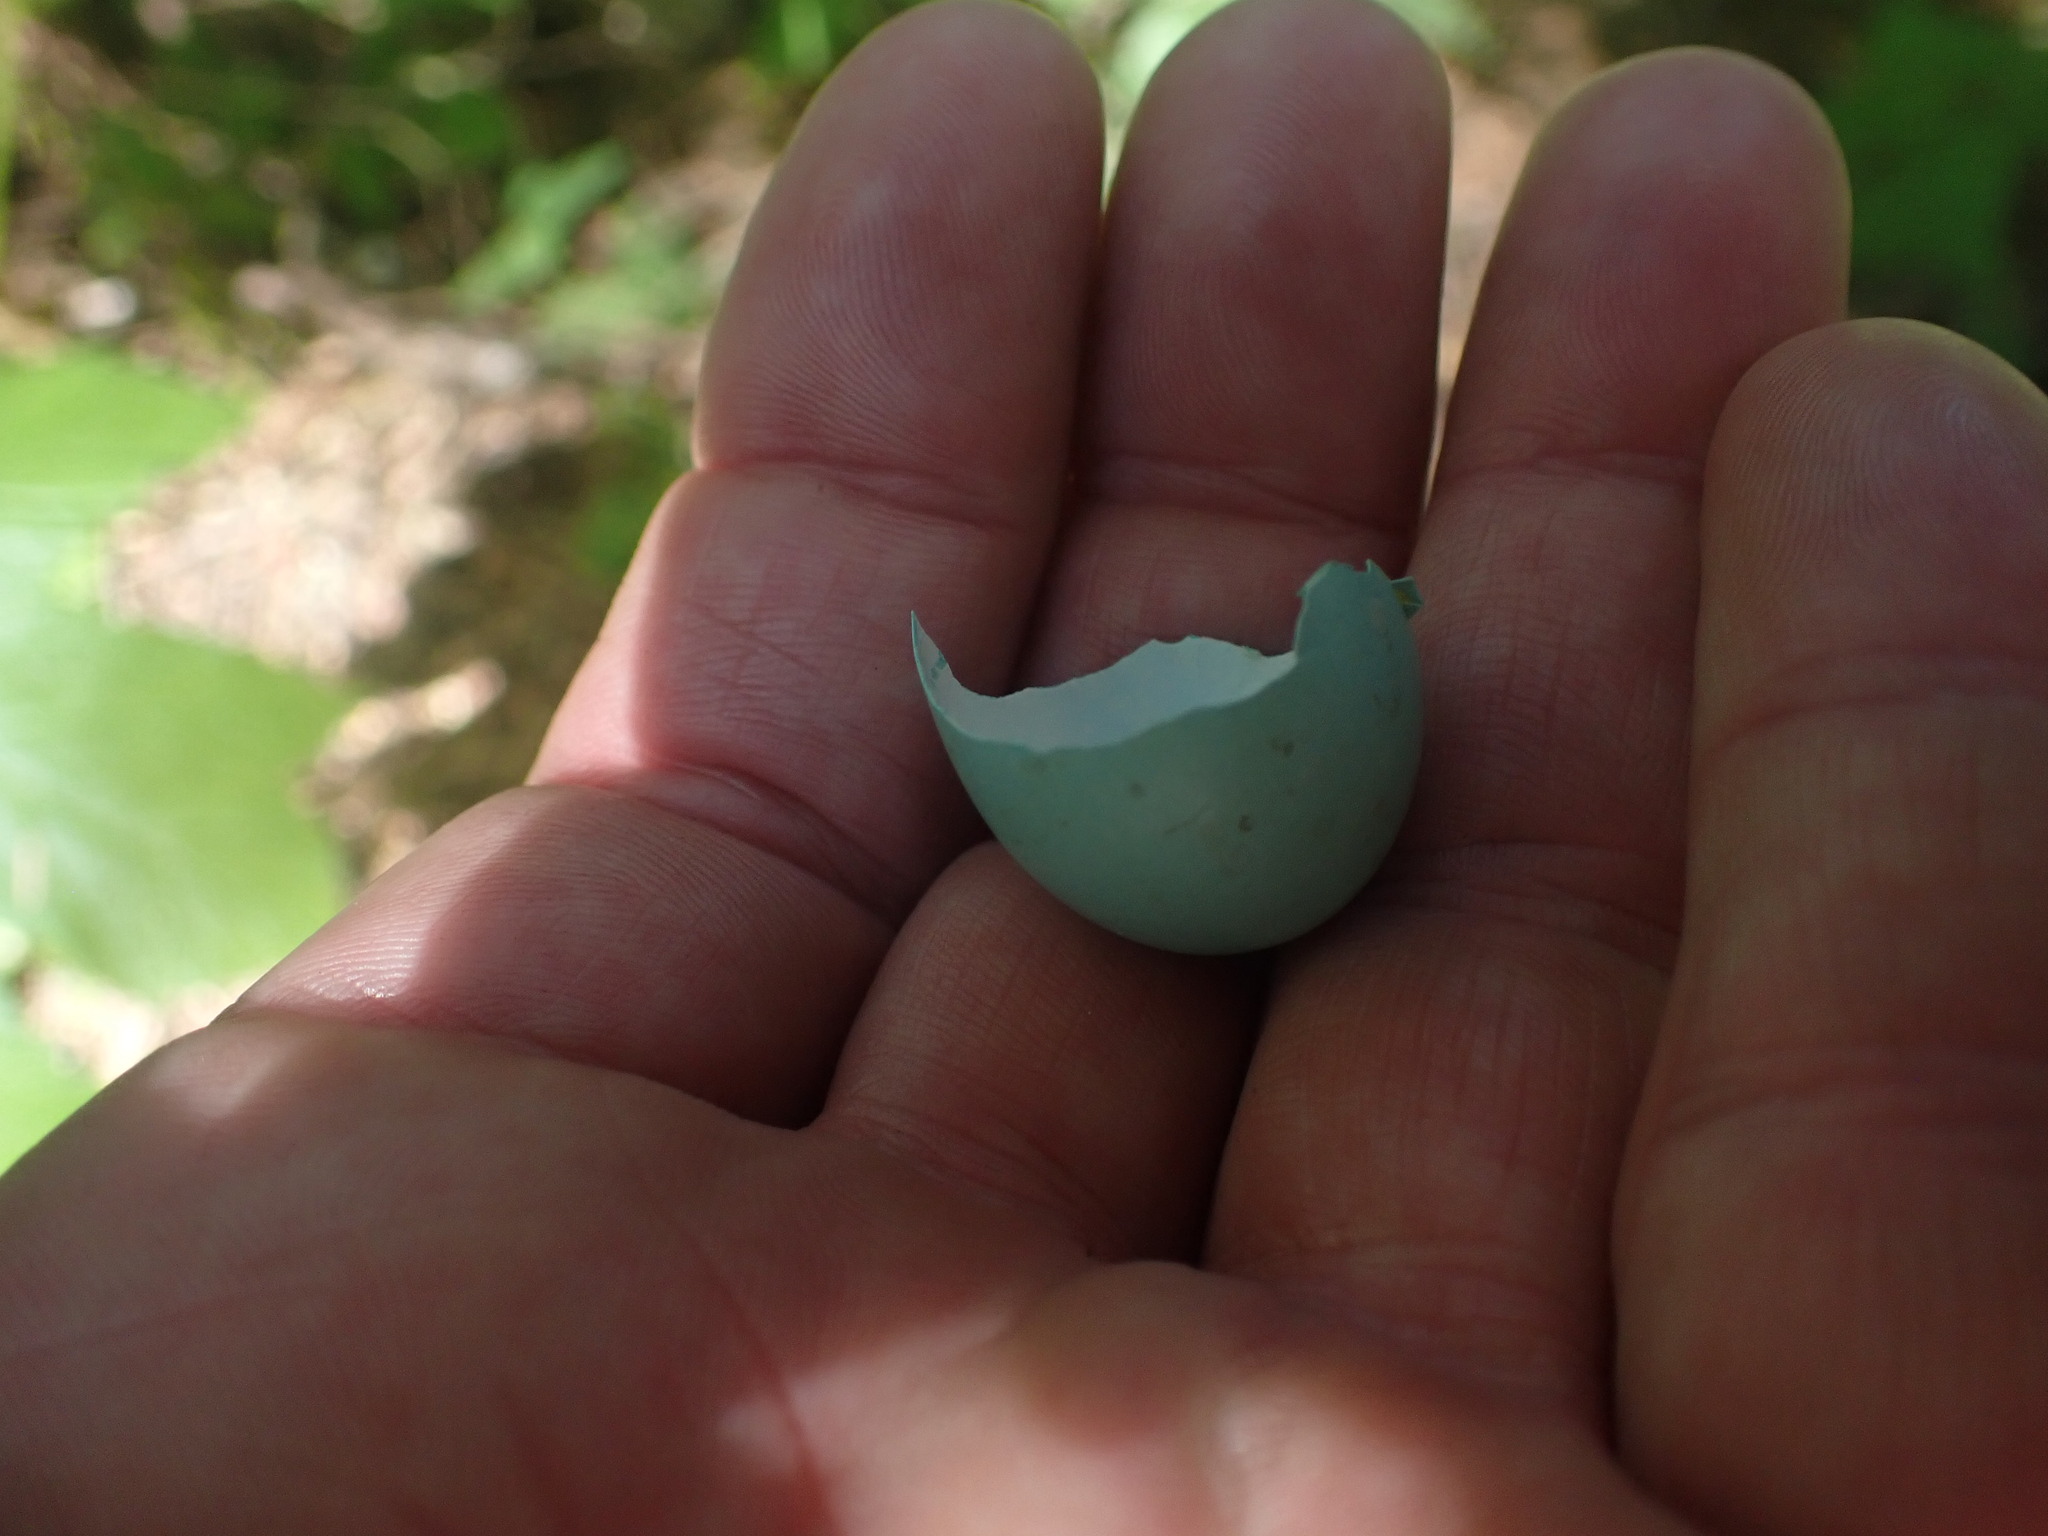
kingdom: Animalia
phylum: Chordata
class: Aves
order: Passeriformes
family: Turdidae
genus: Turdus
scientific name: Turdus migratorius
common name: American robin
